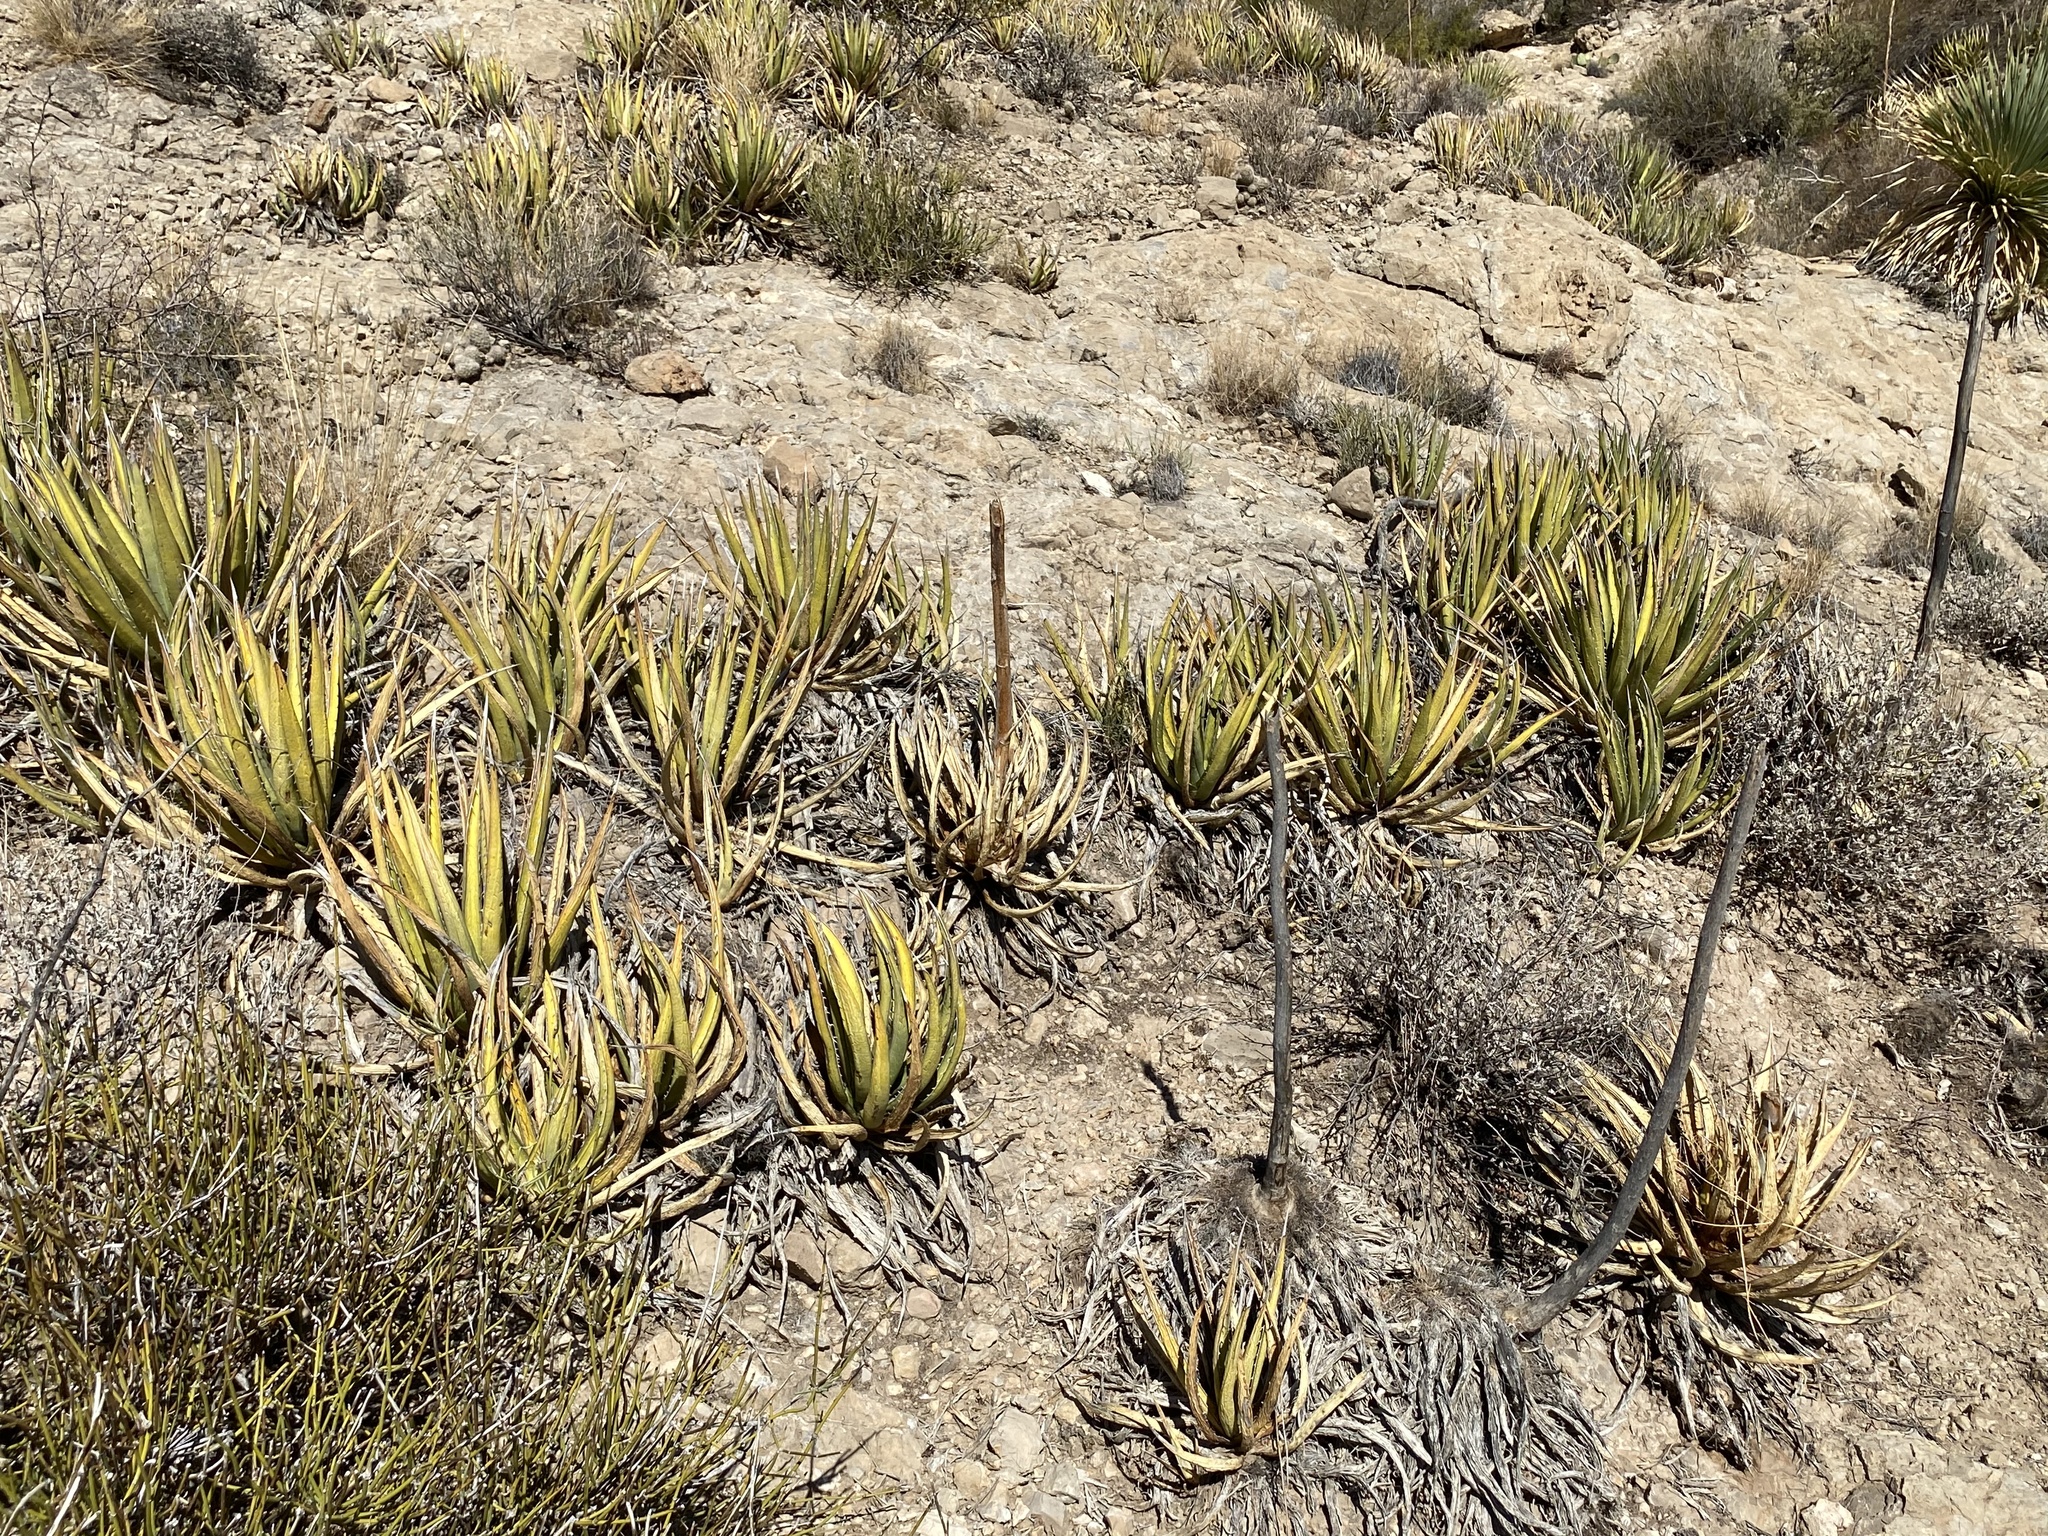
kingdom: Plantae
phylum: Tracheophyta
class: Liliopsida
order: Asparagales
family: Asparagaceae
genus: Agave
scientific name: Agave lechuguilla
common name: Lecheguilla agave
